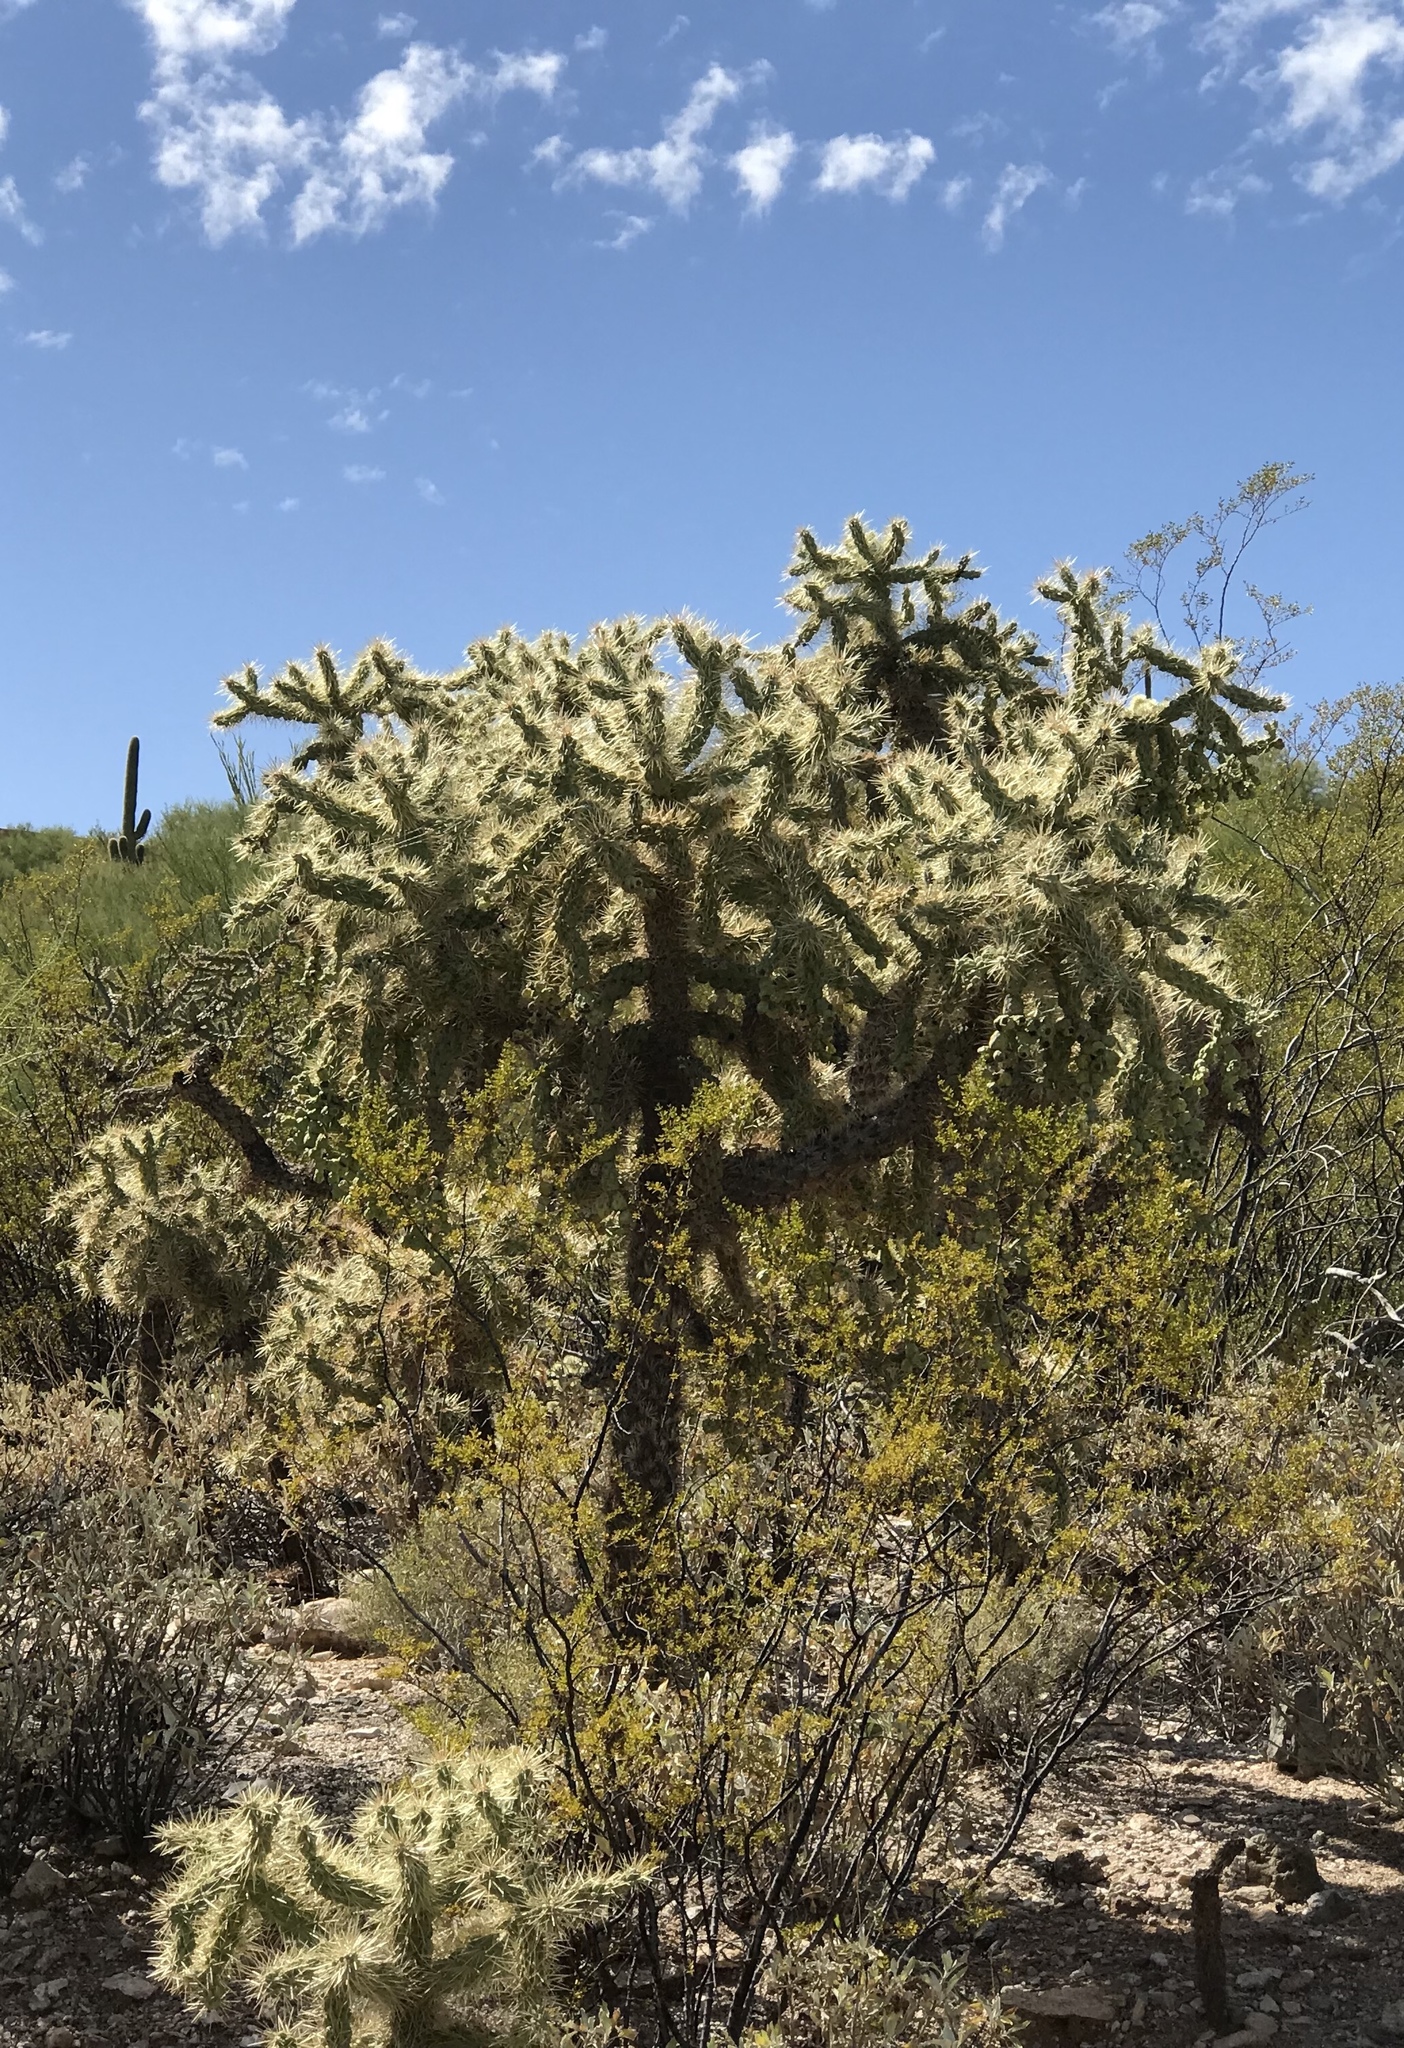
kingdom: Plantae
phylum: Tracheophyta
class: Magnoliopsida
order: Caryophyllales
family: Cactaceae
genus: Cylindropuntia
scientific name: Cylindropuntia fulgida
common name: Jumping cholla
